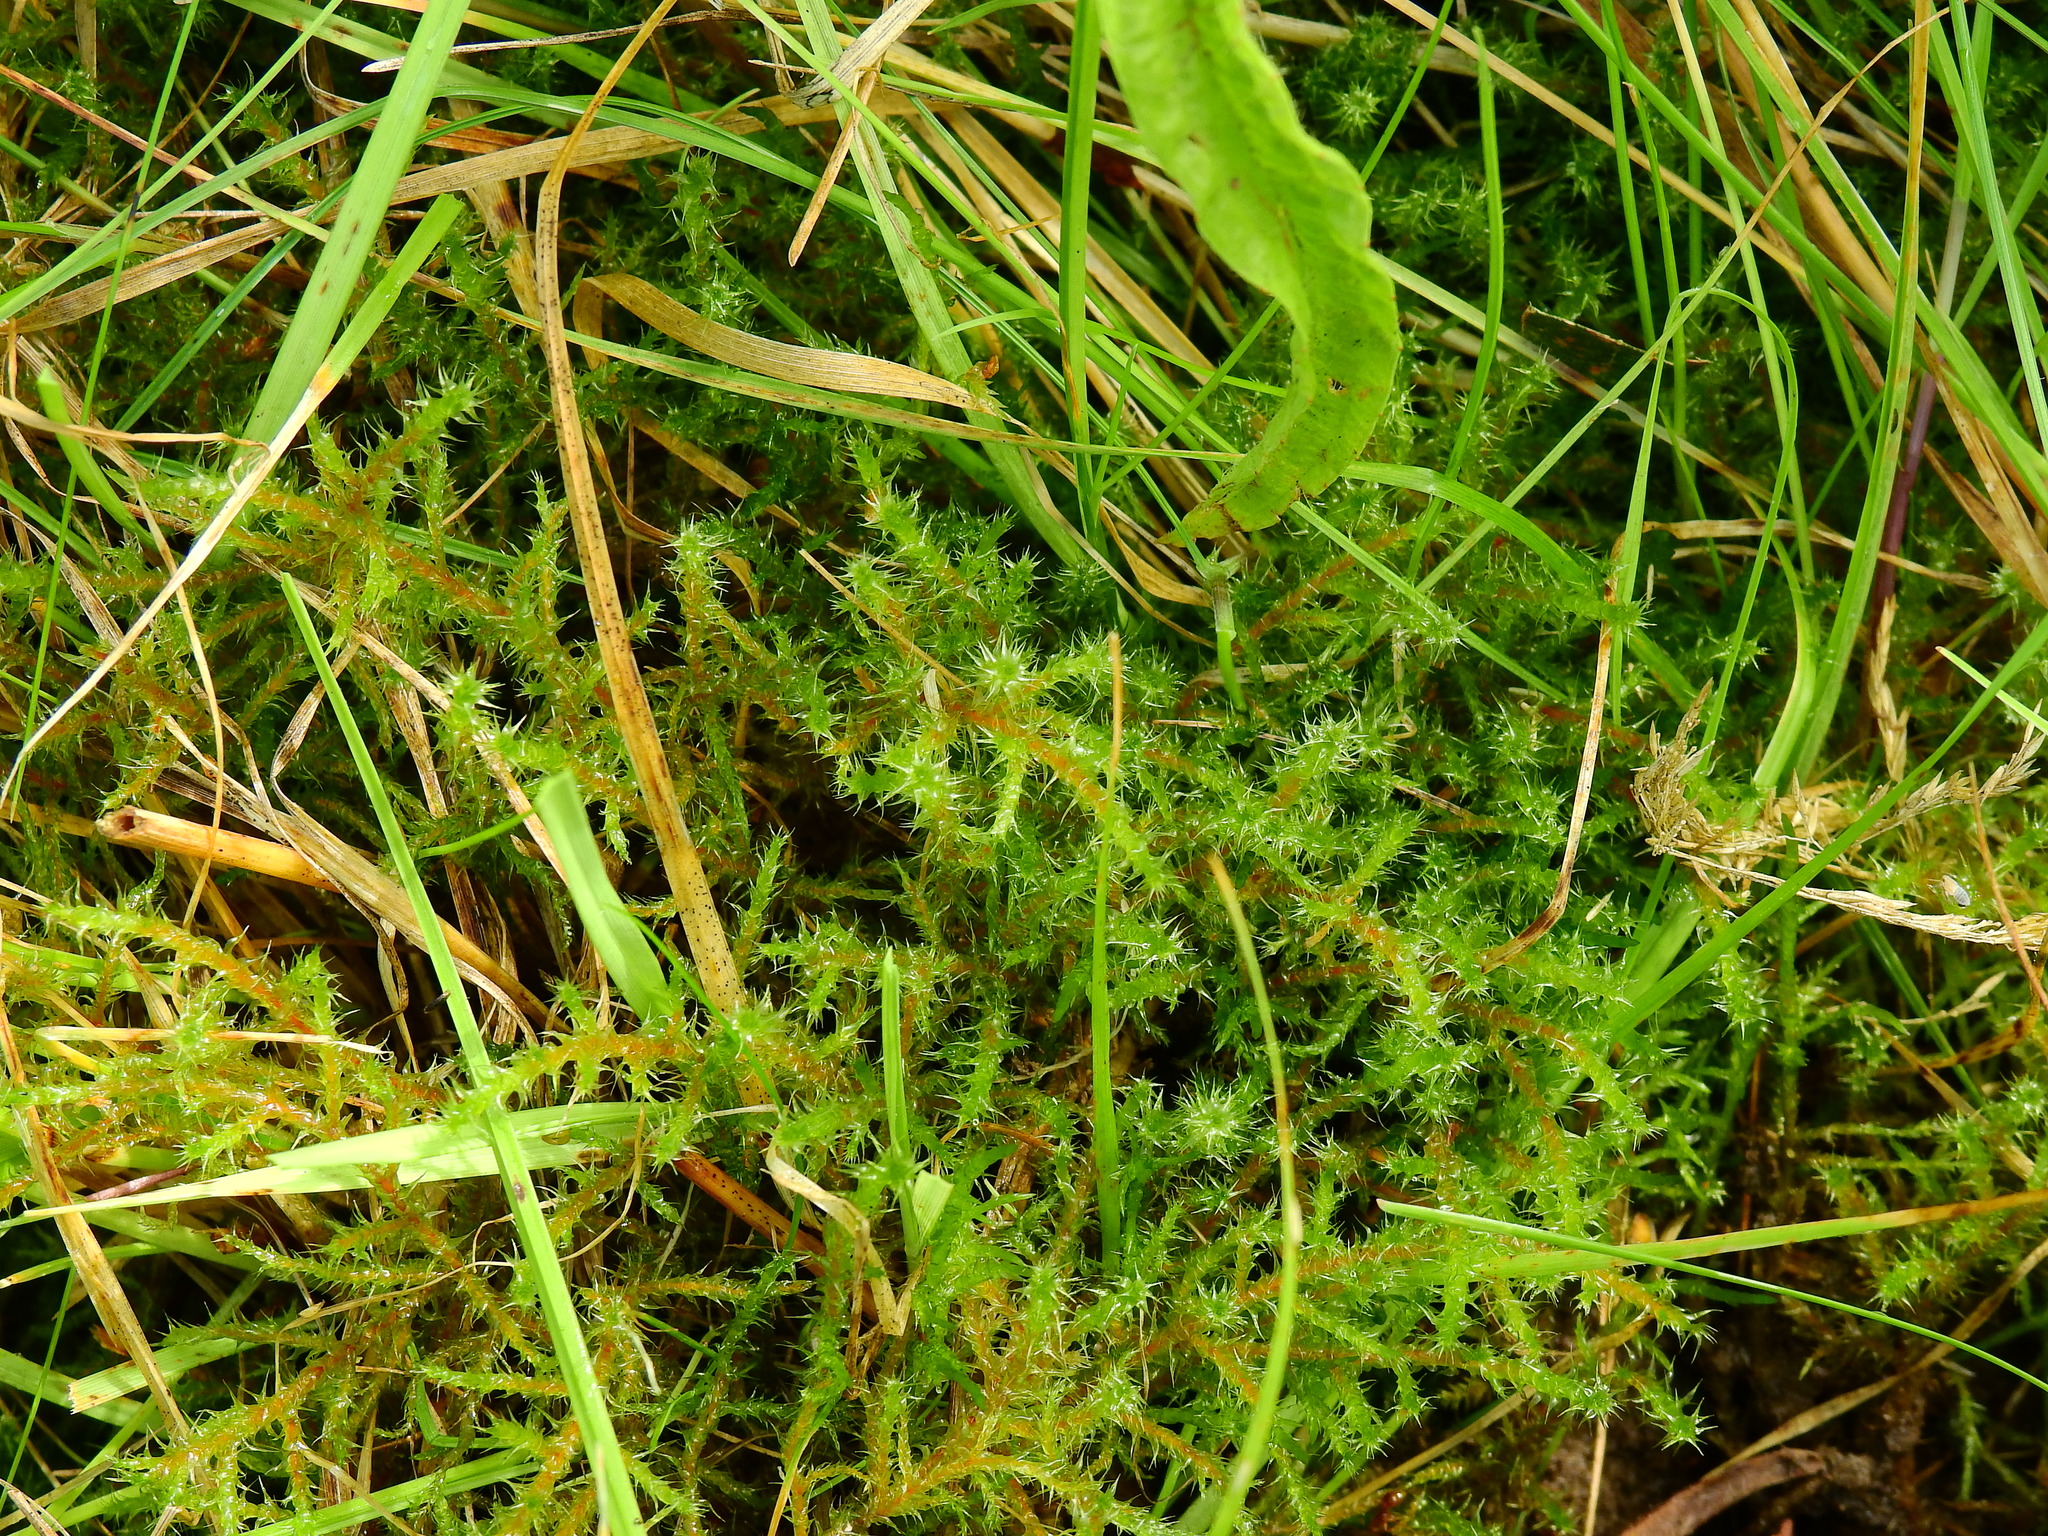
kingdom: Plantae
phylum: Bryophyta
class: Bryopsida
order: Hypnales
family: Hylocomiaceae
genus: Rhytidiadelphus
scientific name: Rhytidiadelphus squarrosus
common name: Springy turf-moss
